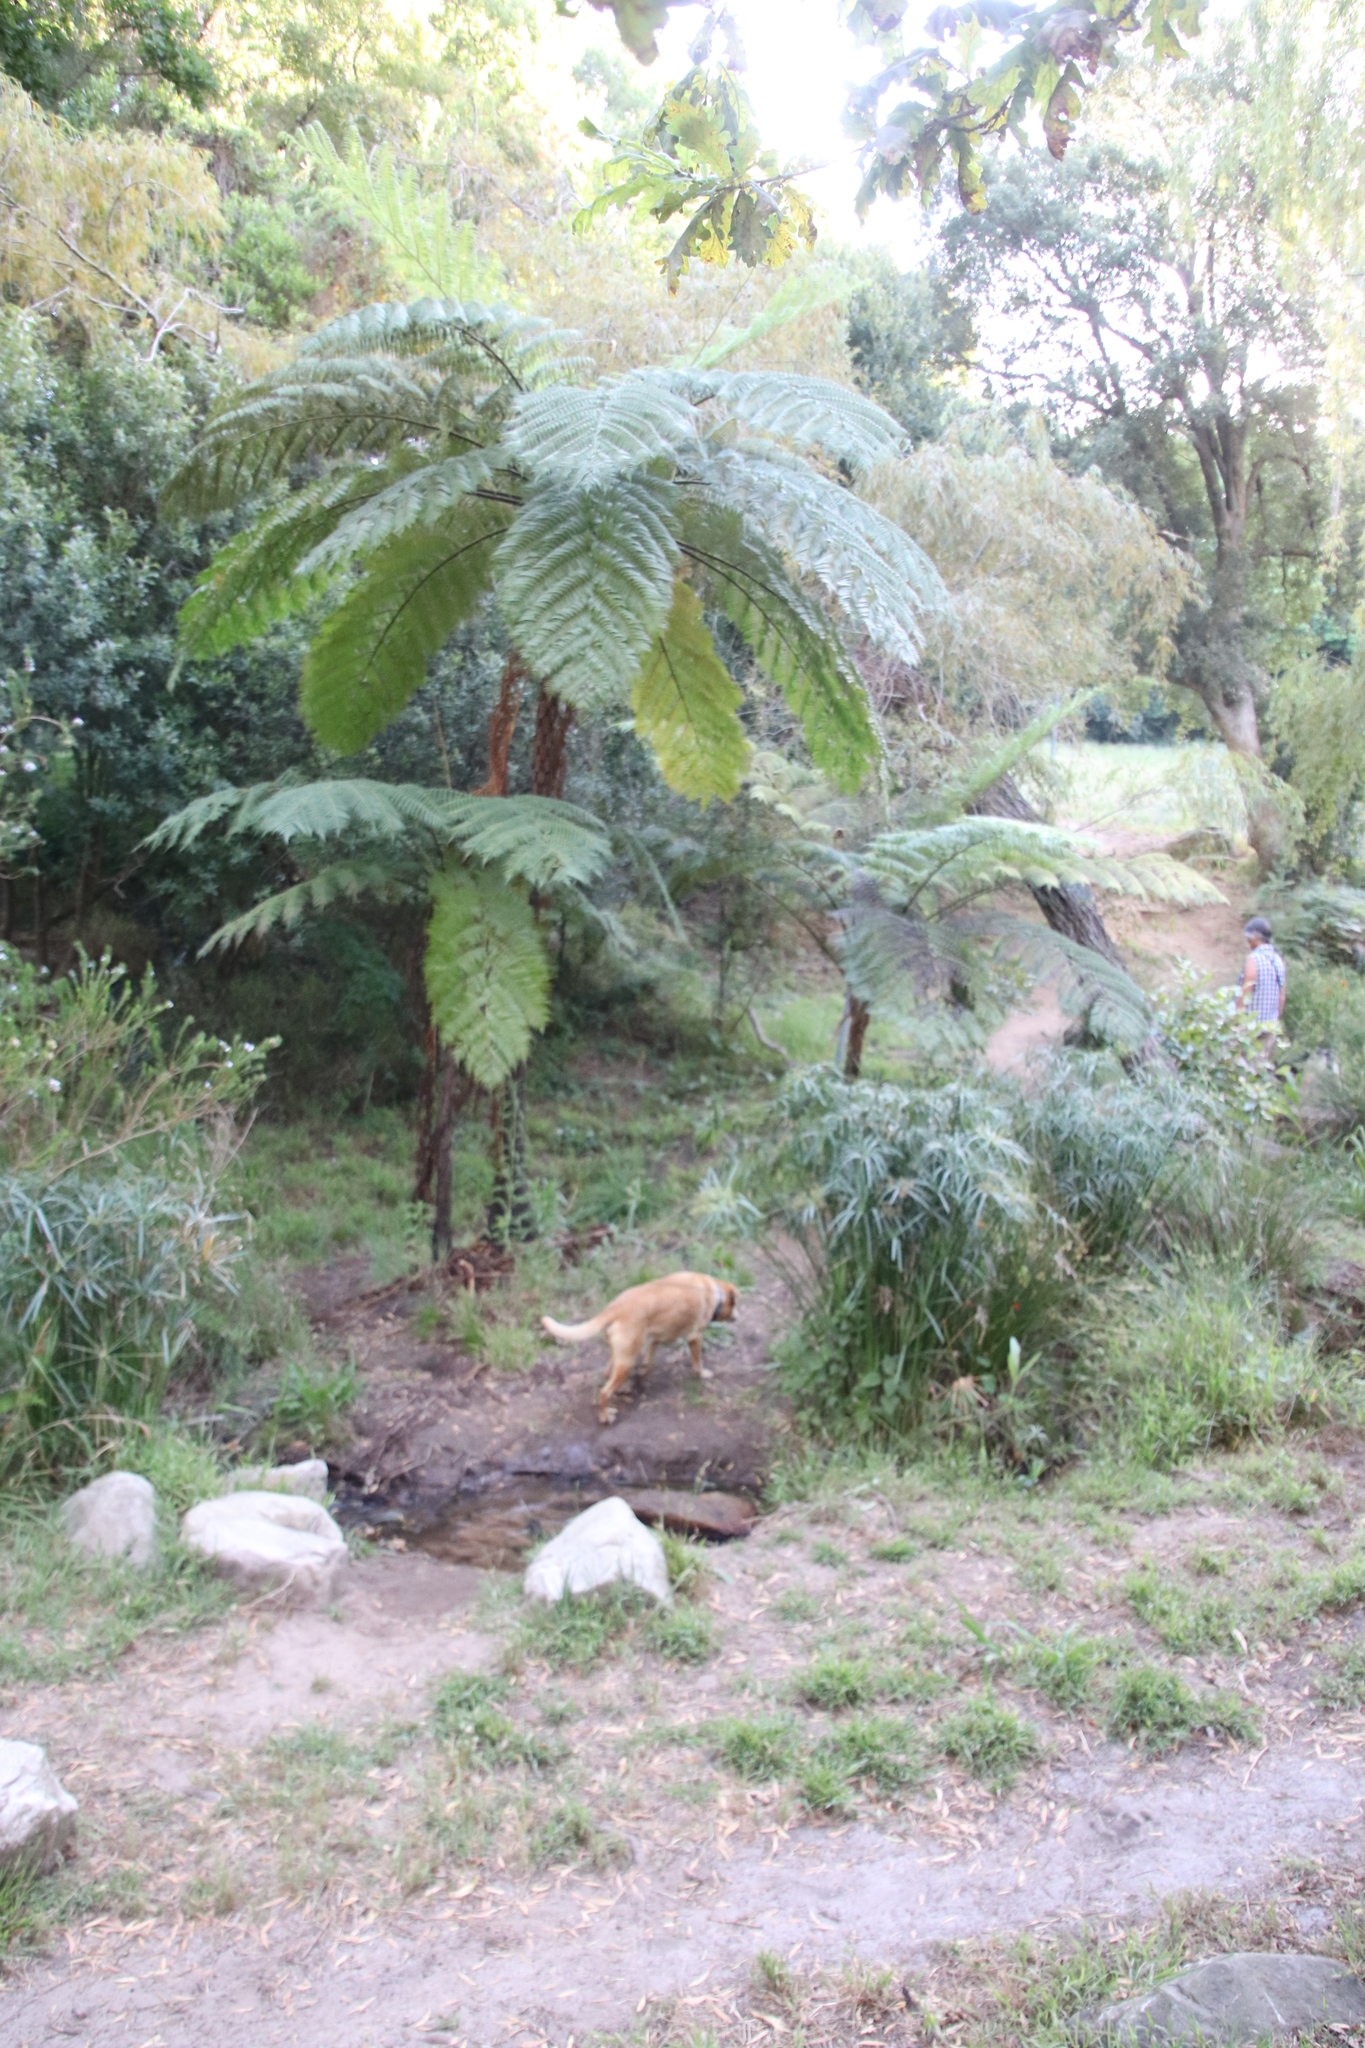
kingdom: Plantae
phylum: Tracheophyta
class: Polypodiopsida
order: Cyatheales
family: Cyatheaceae
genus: Sphaeropteris
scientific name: Sphaeropteris cooperi
